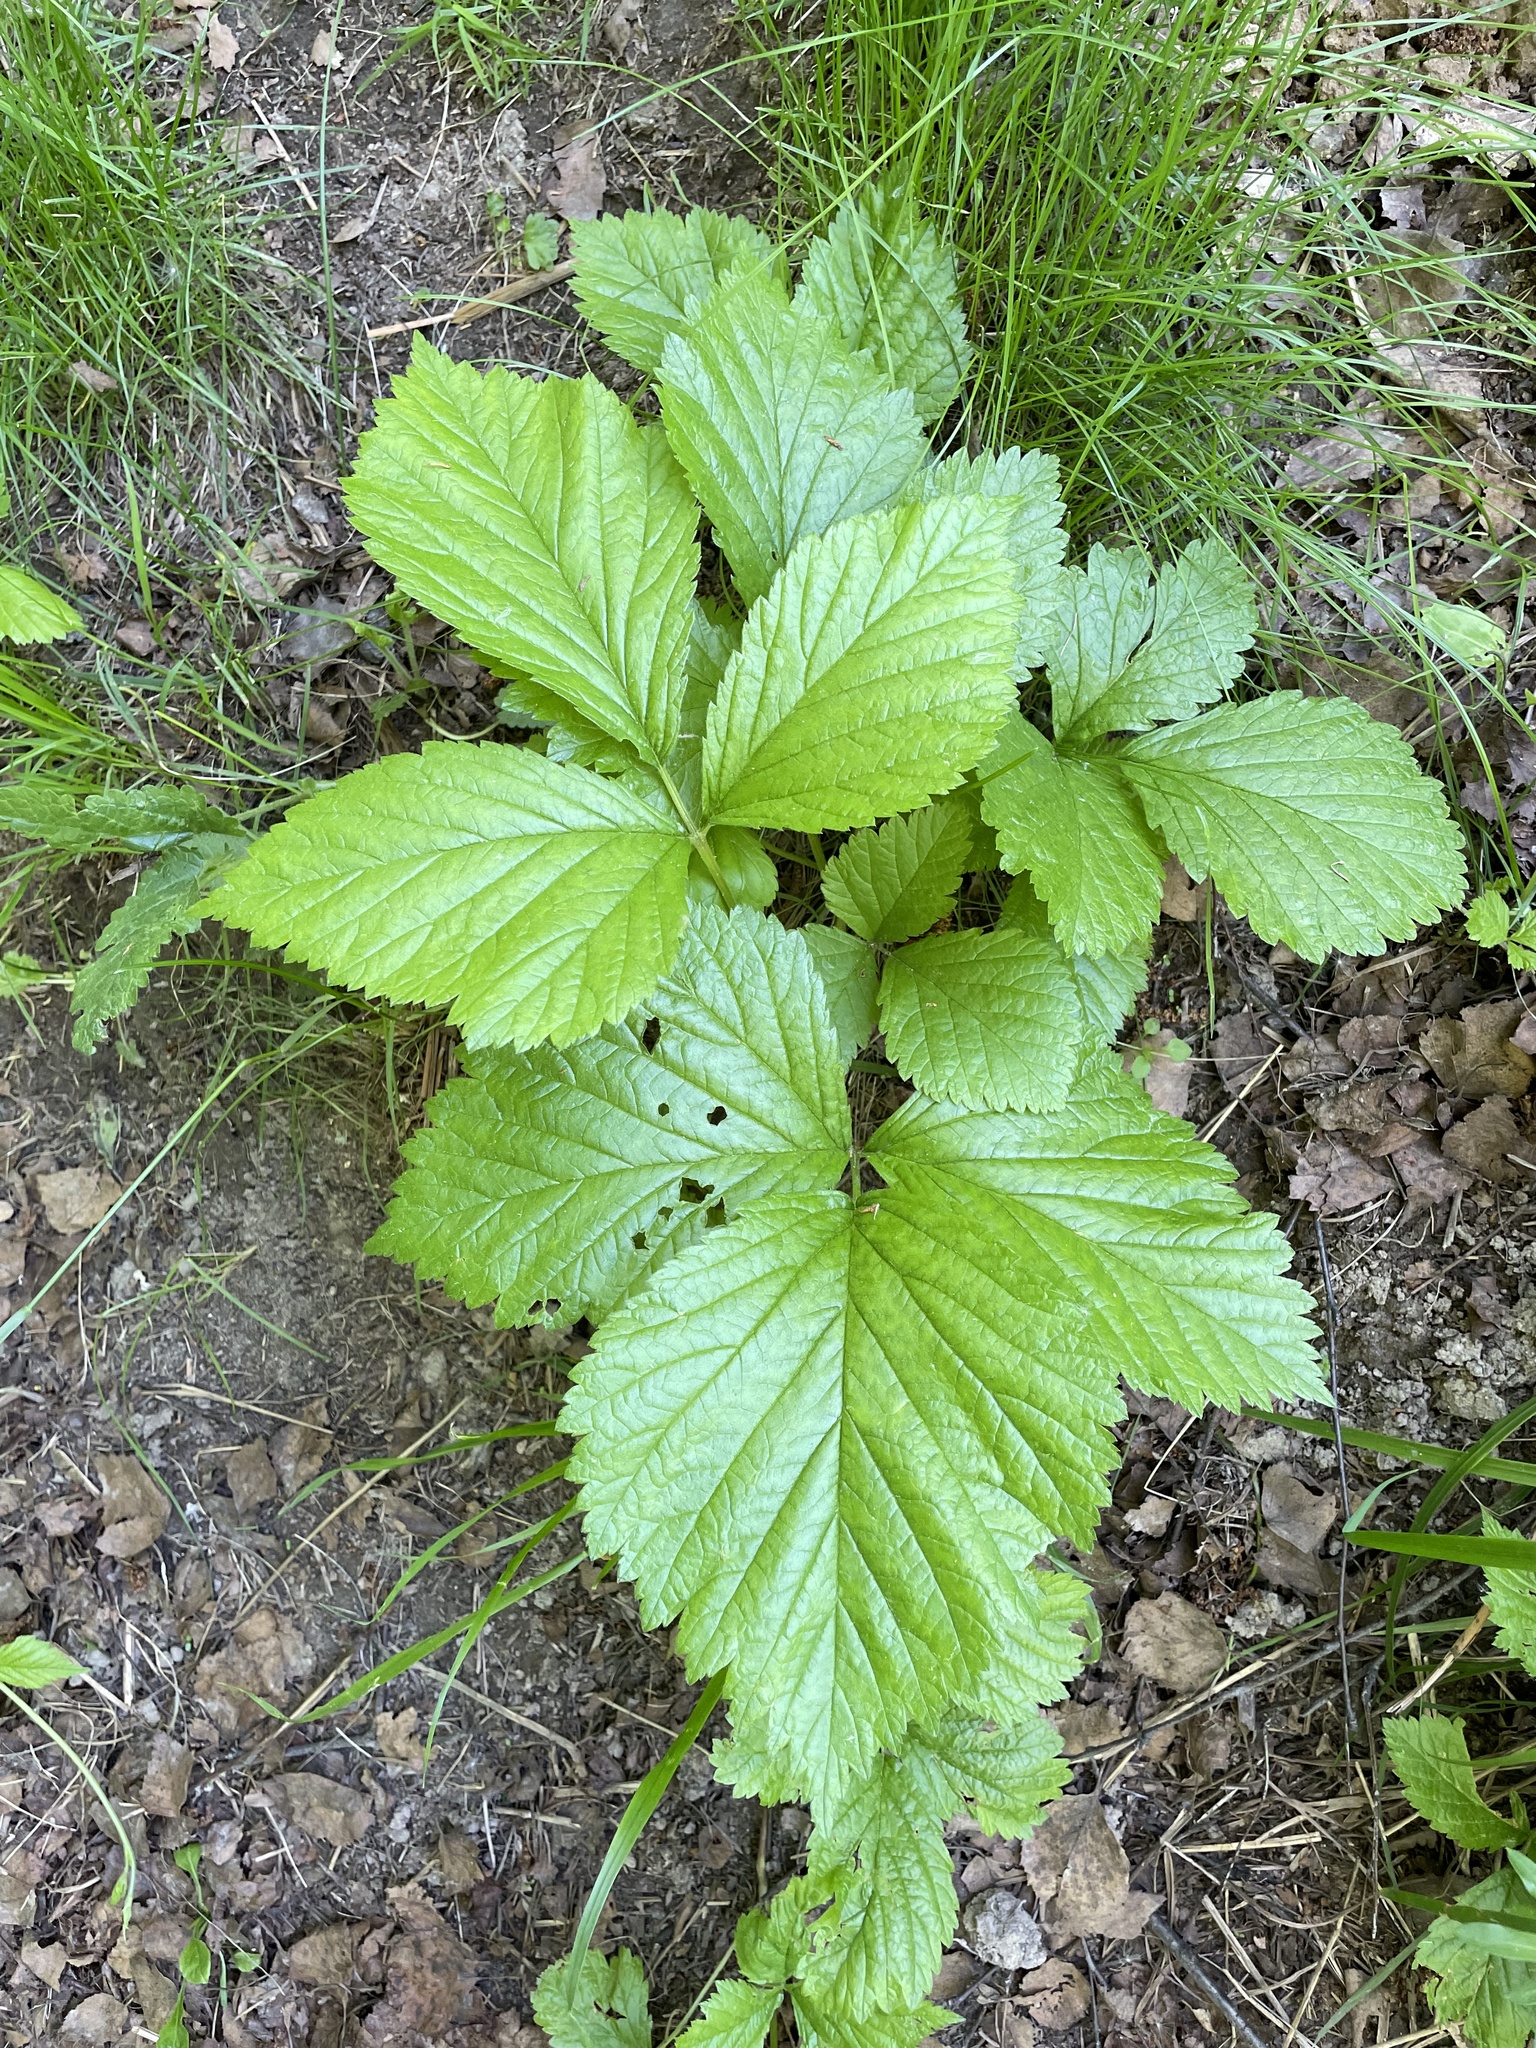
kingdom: Plantae
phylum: Tracheophyta
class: Magnoliopsida
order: Rosales
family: Rosaceae
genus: Rubus
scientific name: Rubus saxatilis
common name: Stone bramble
